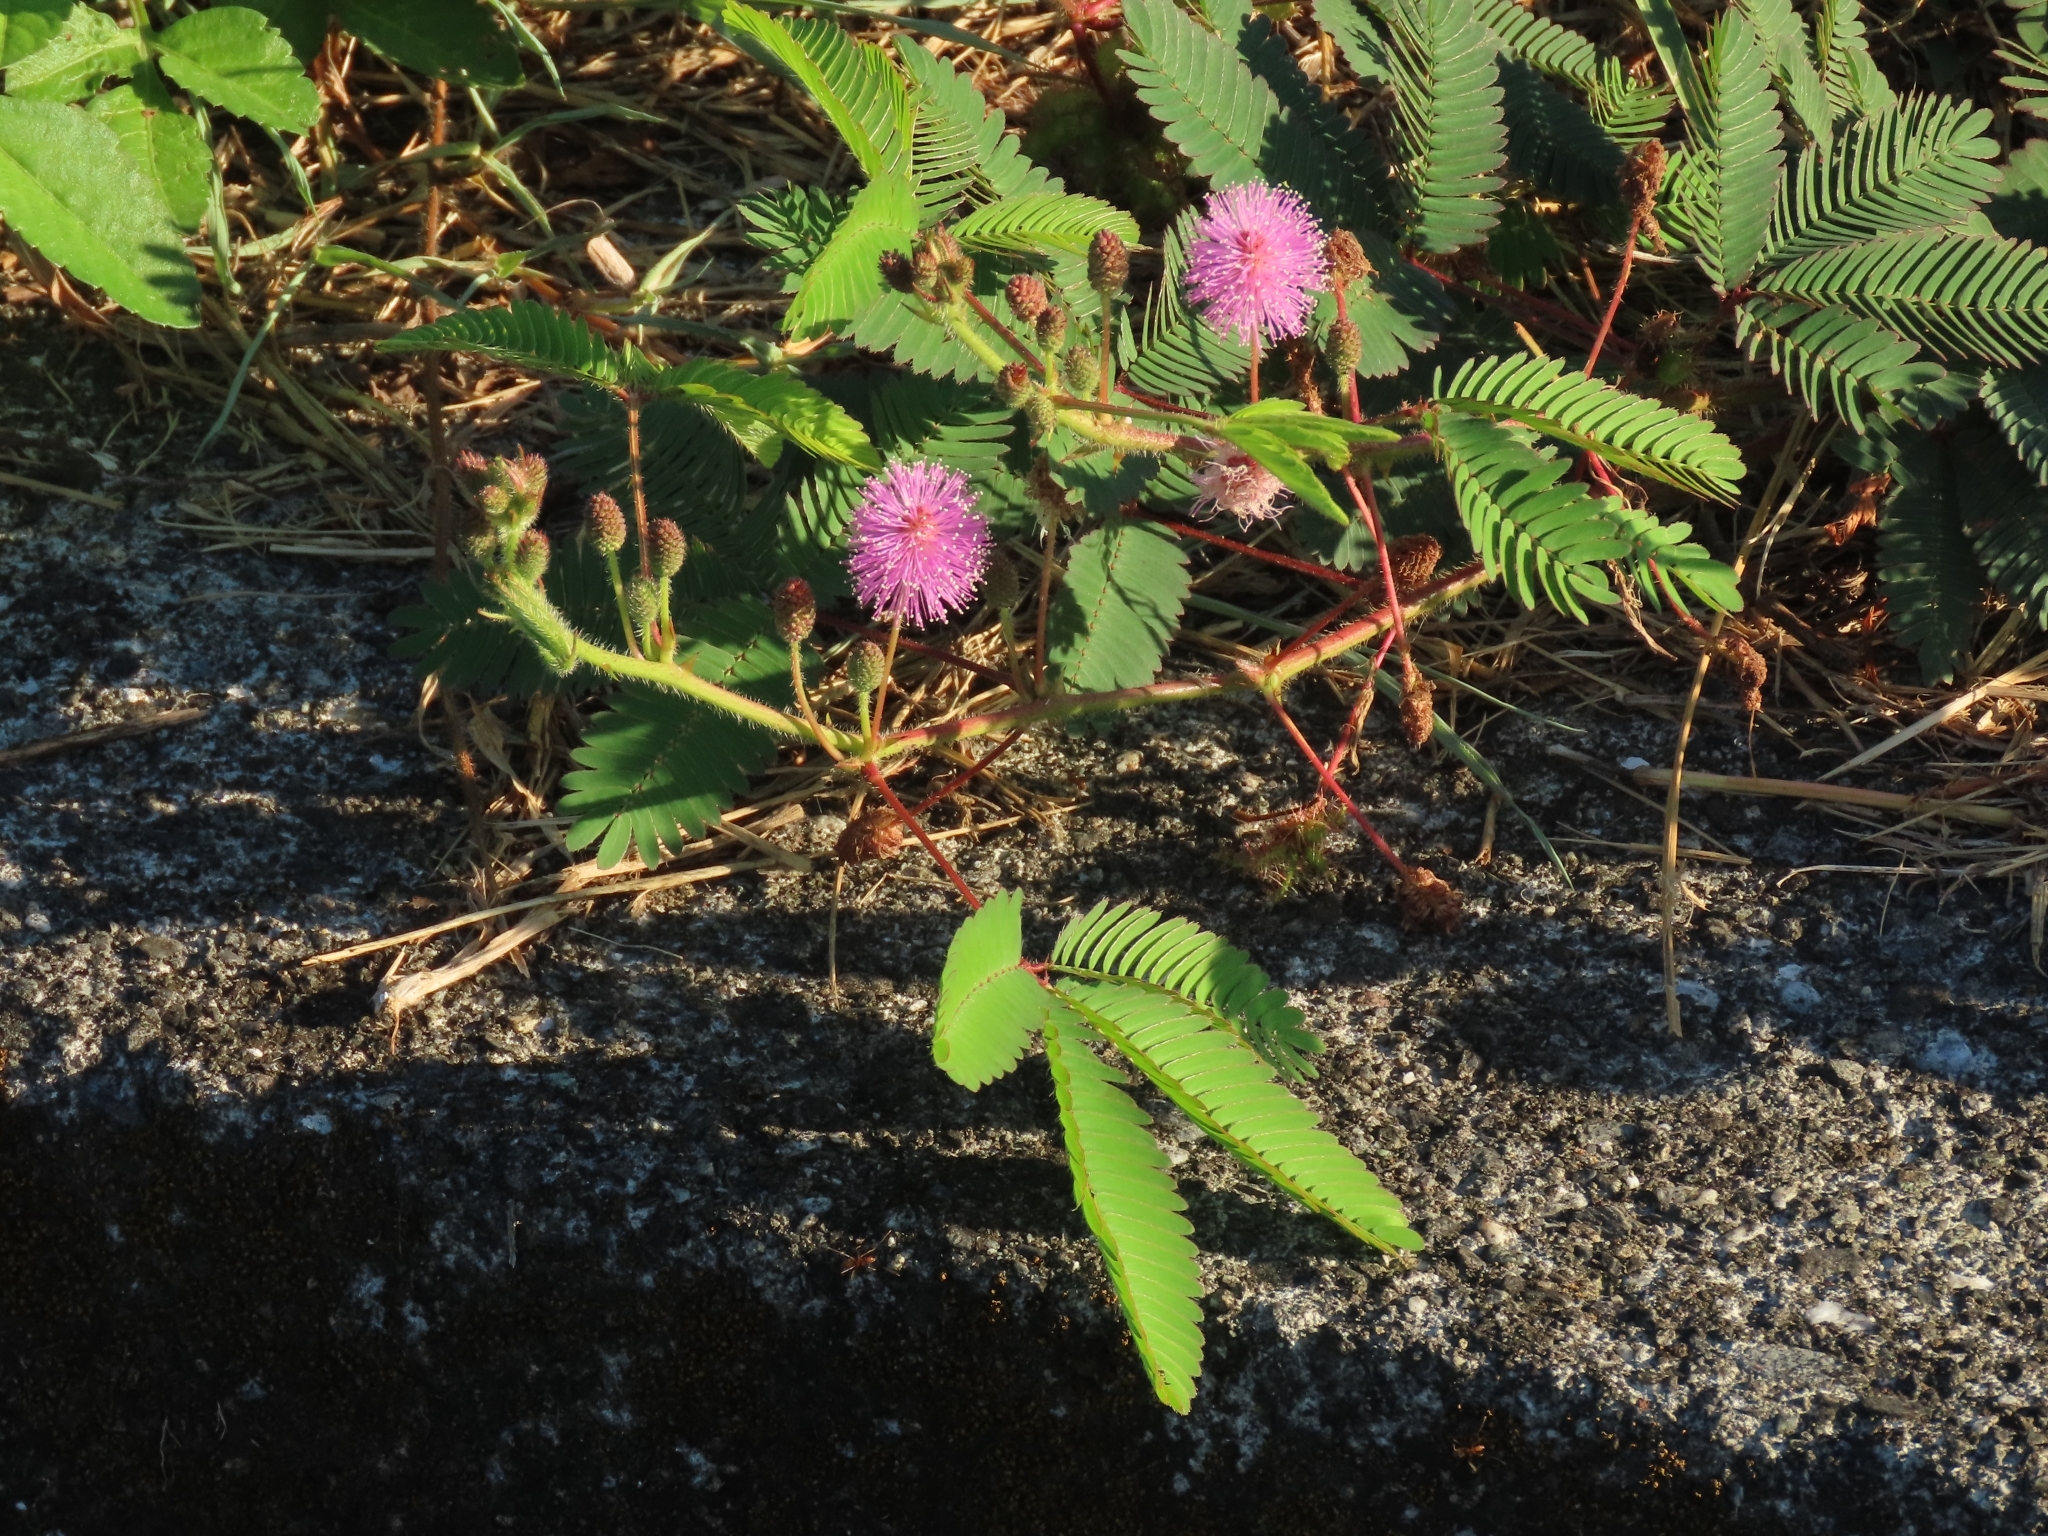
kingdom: Plantae
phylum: Tracheophyta
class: Magnoliopsida
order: Fabales
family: Fabaceae
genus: Mimosa
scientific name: Mimosa pudica
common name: Sensitive plant
